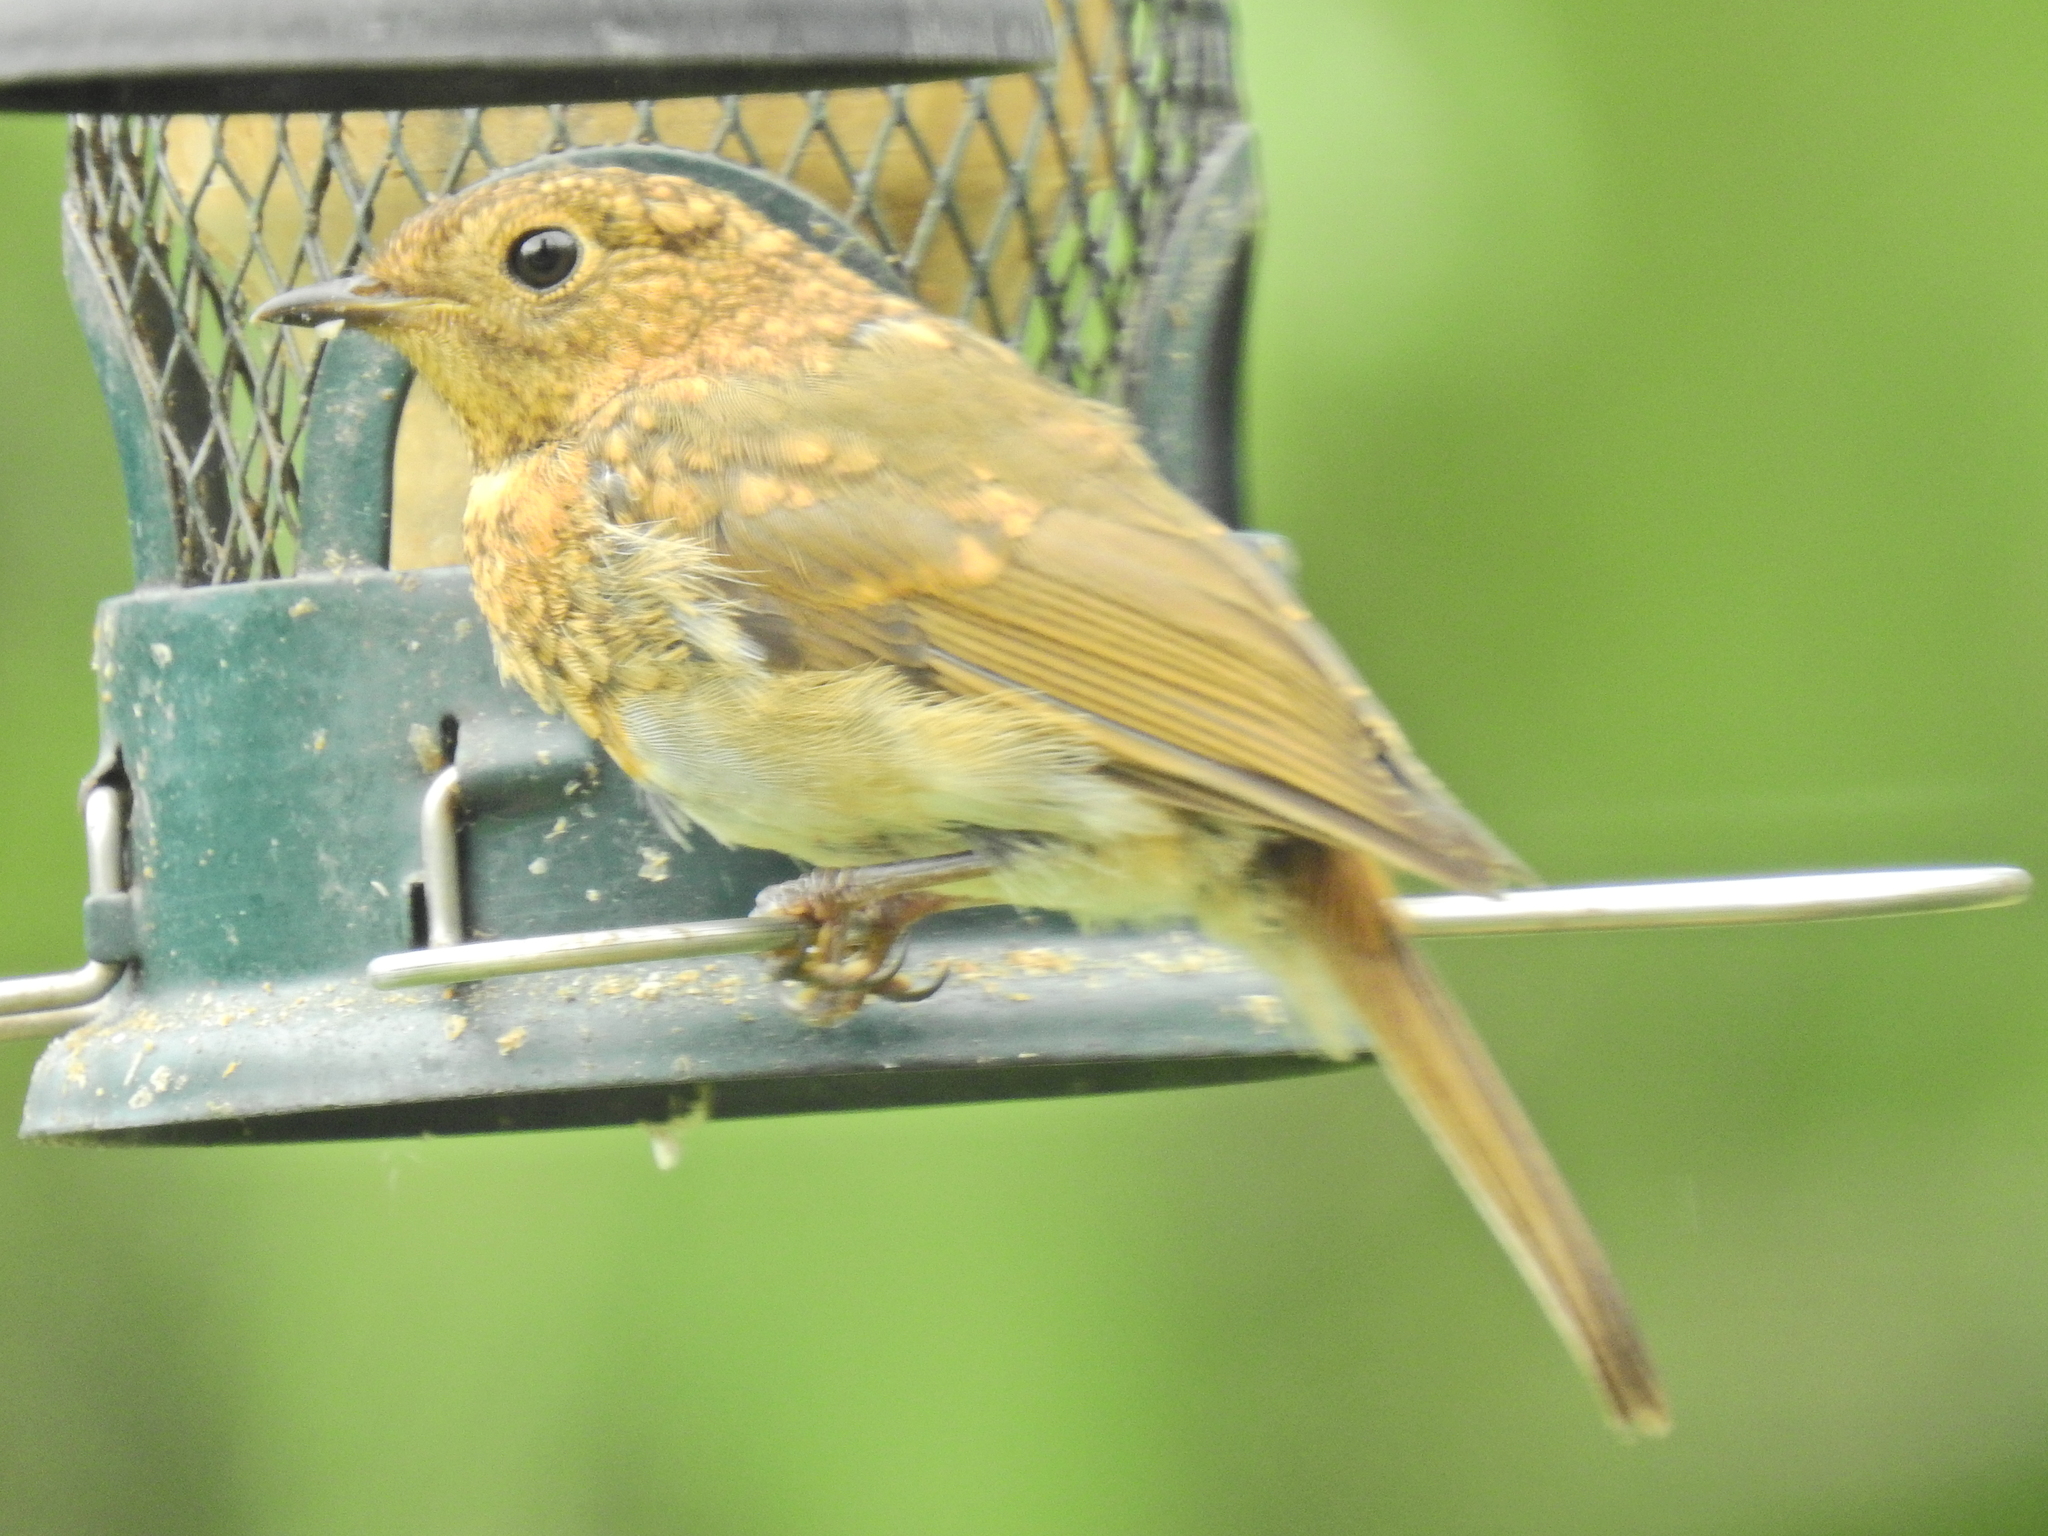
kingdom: Animalia
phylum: Chordata
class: Aves
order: Passeriformes
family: Muscicapidae
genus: Erithacus
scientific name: Erithacus rubecula
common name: European robin
